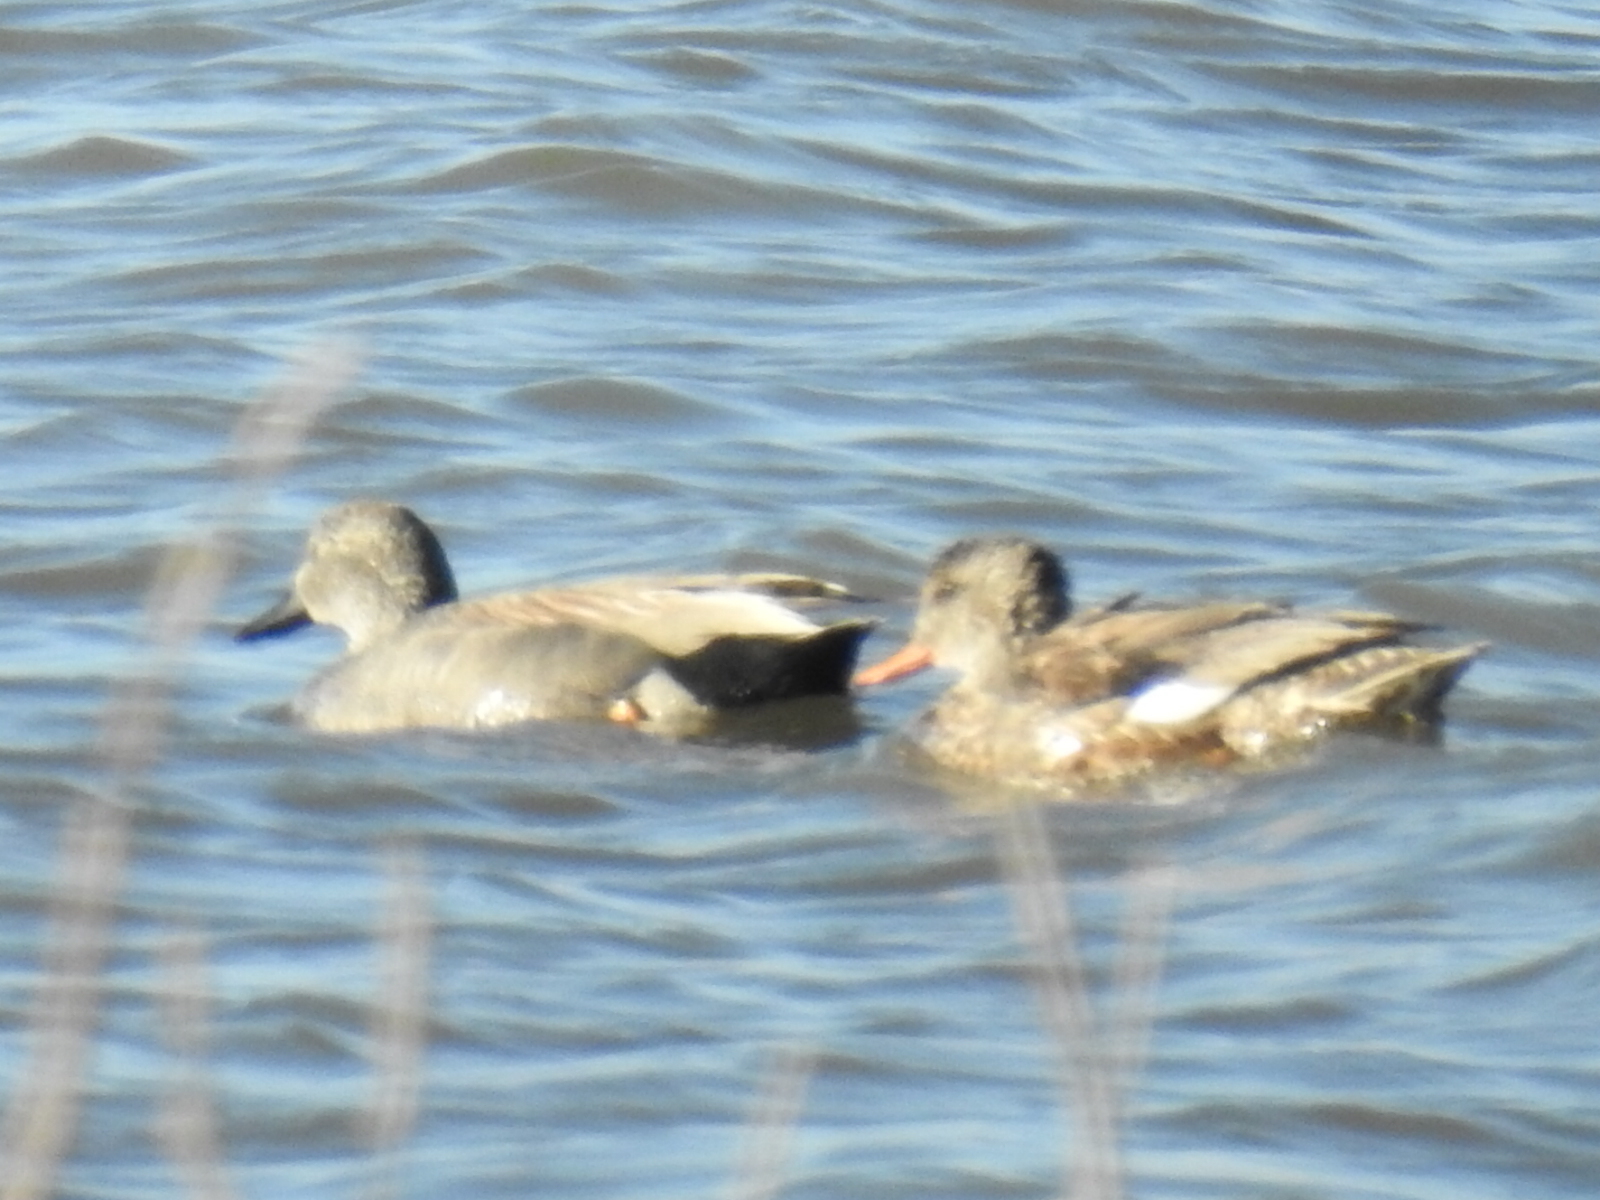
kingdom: Animalia
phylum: Chordata
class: Aves
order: Anseriformes
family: Anatidae
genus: Mareca
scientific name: Mareca strepera
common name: Gadwall
